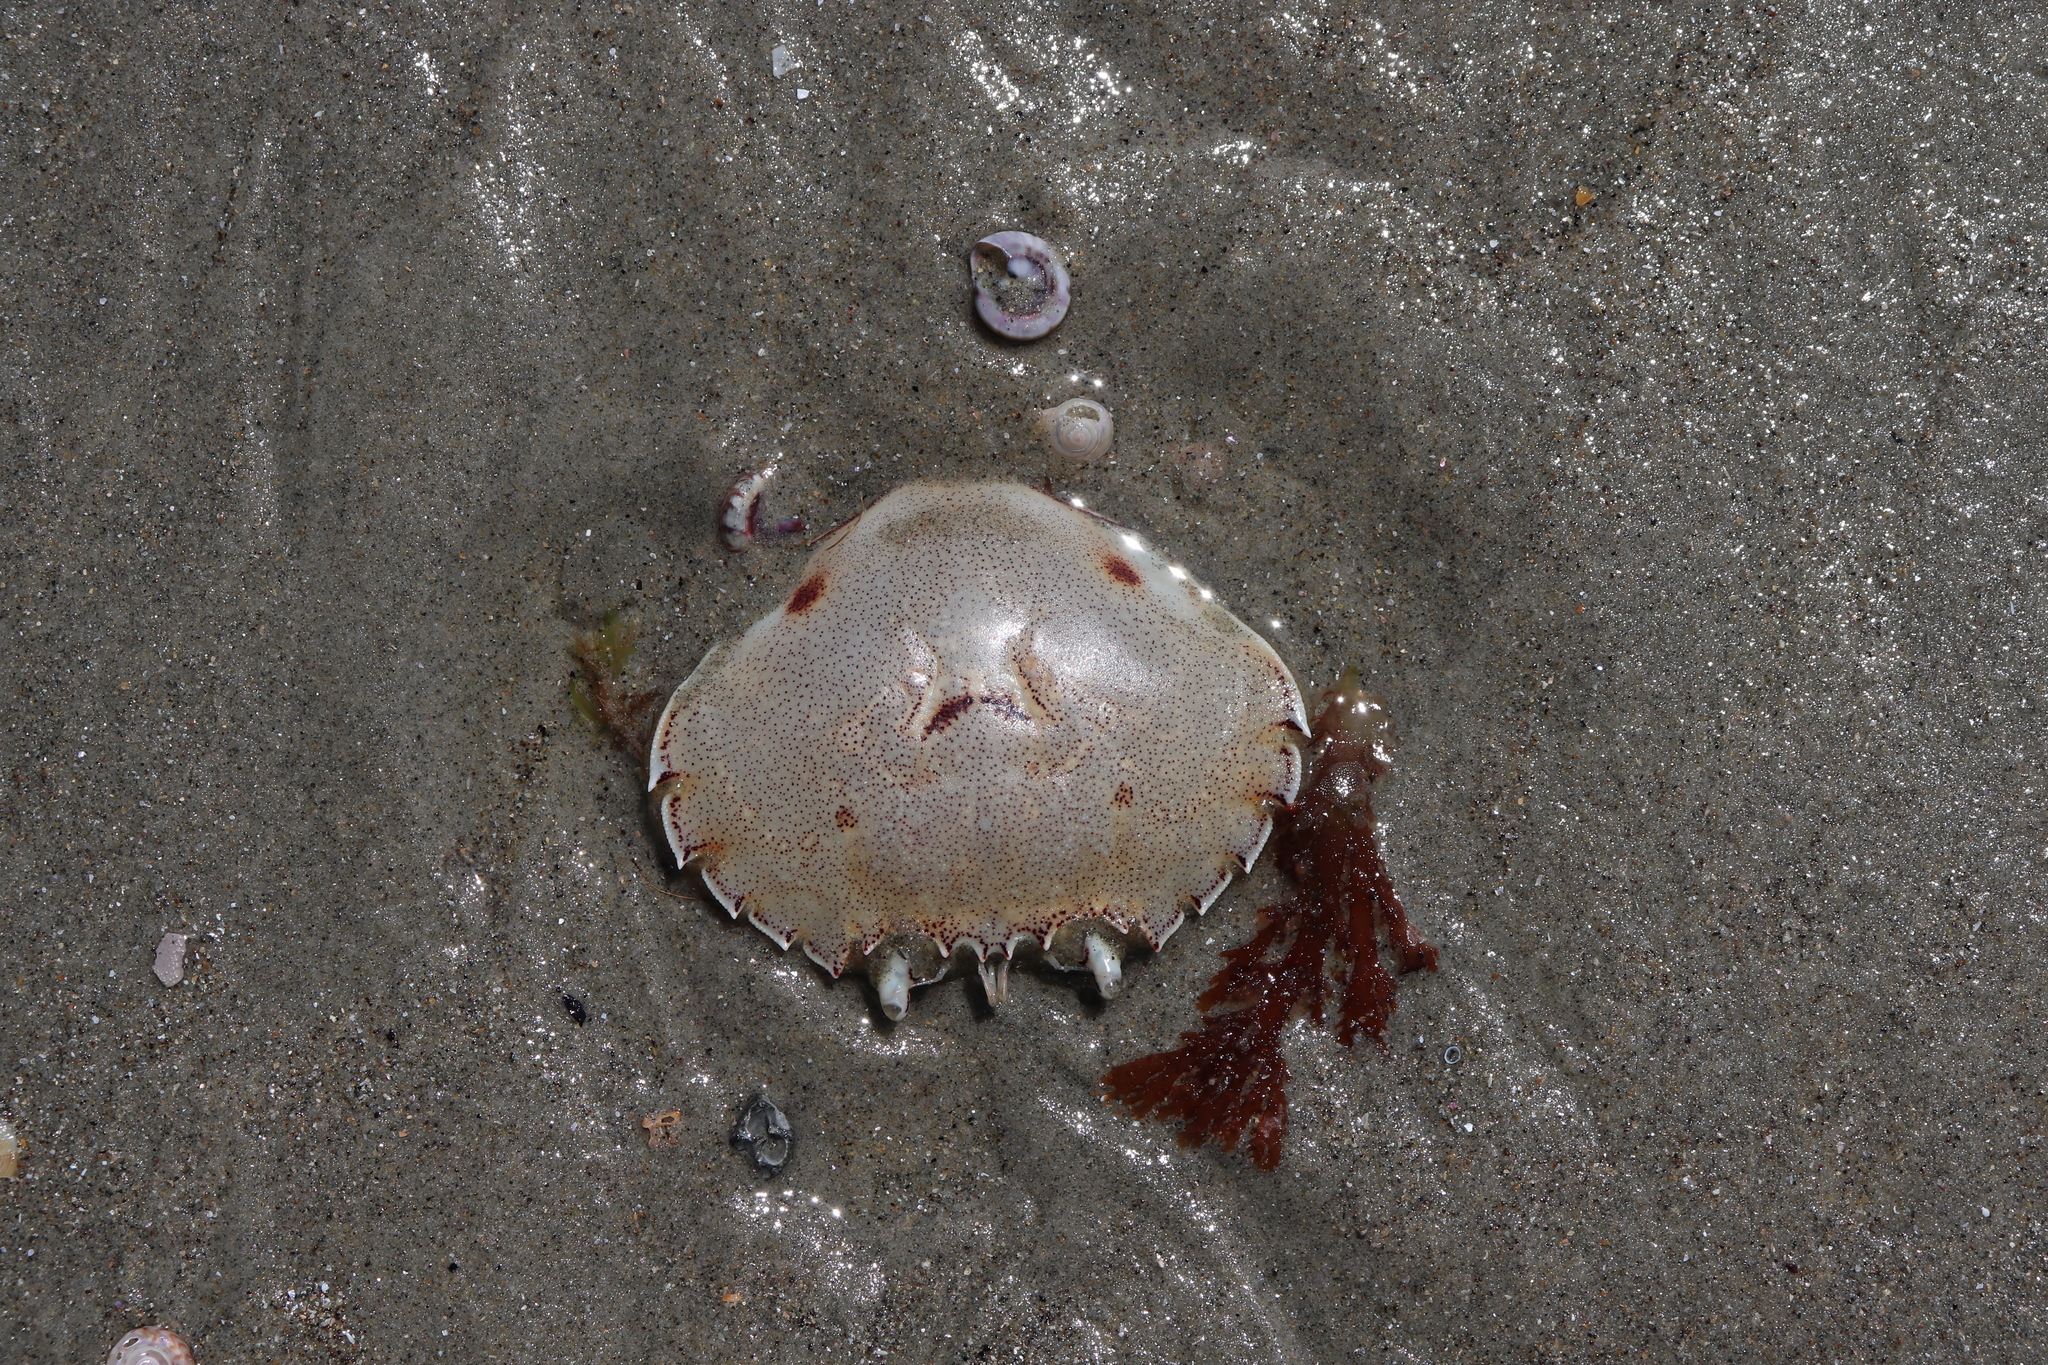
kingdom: Animalia
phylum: Arthropoda
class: Malacostraca
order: Decapoda
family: Ovalipidae
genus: Ovalipes
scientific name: Ovalipes catharus
